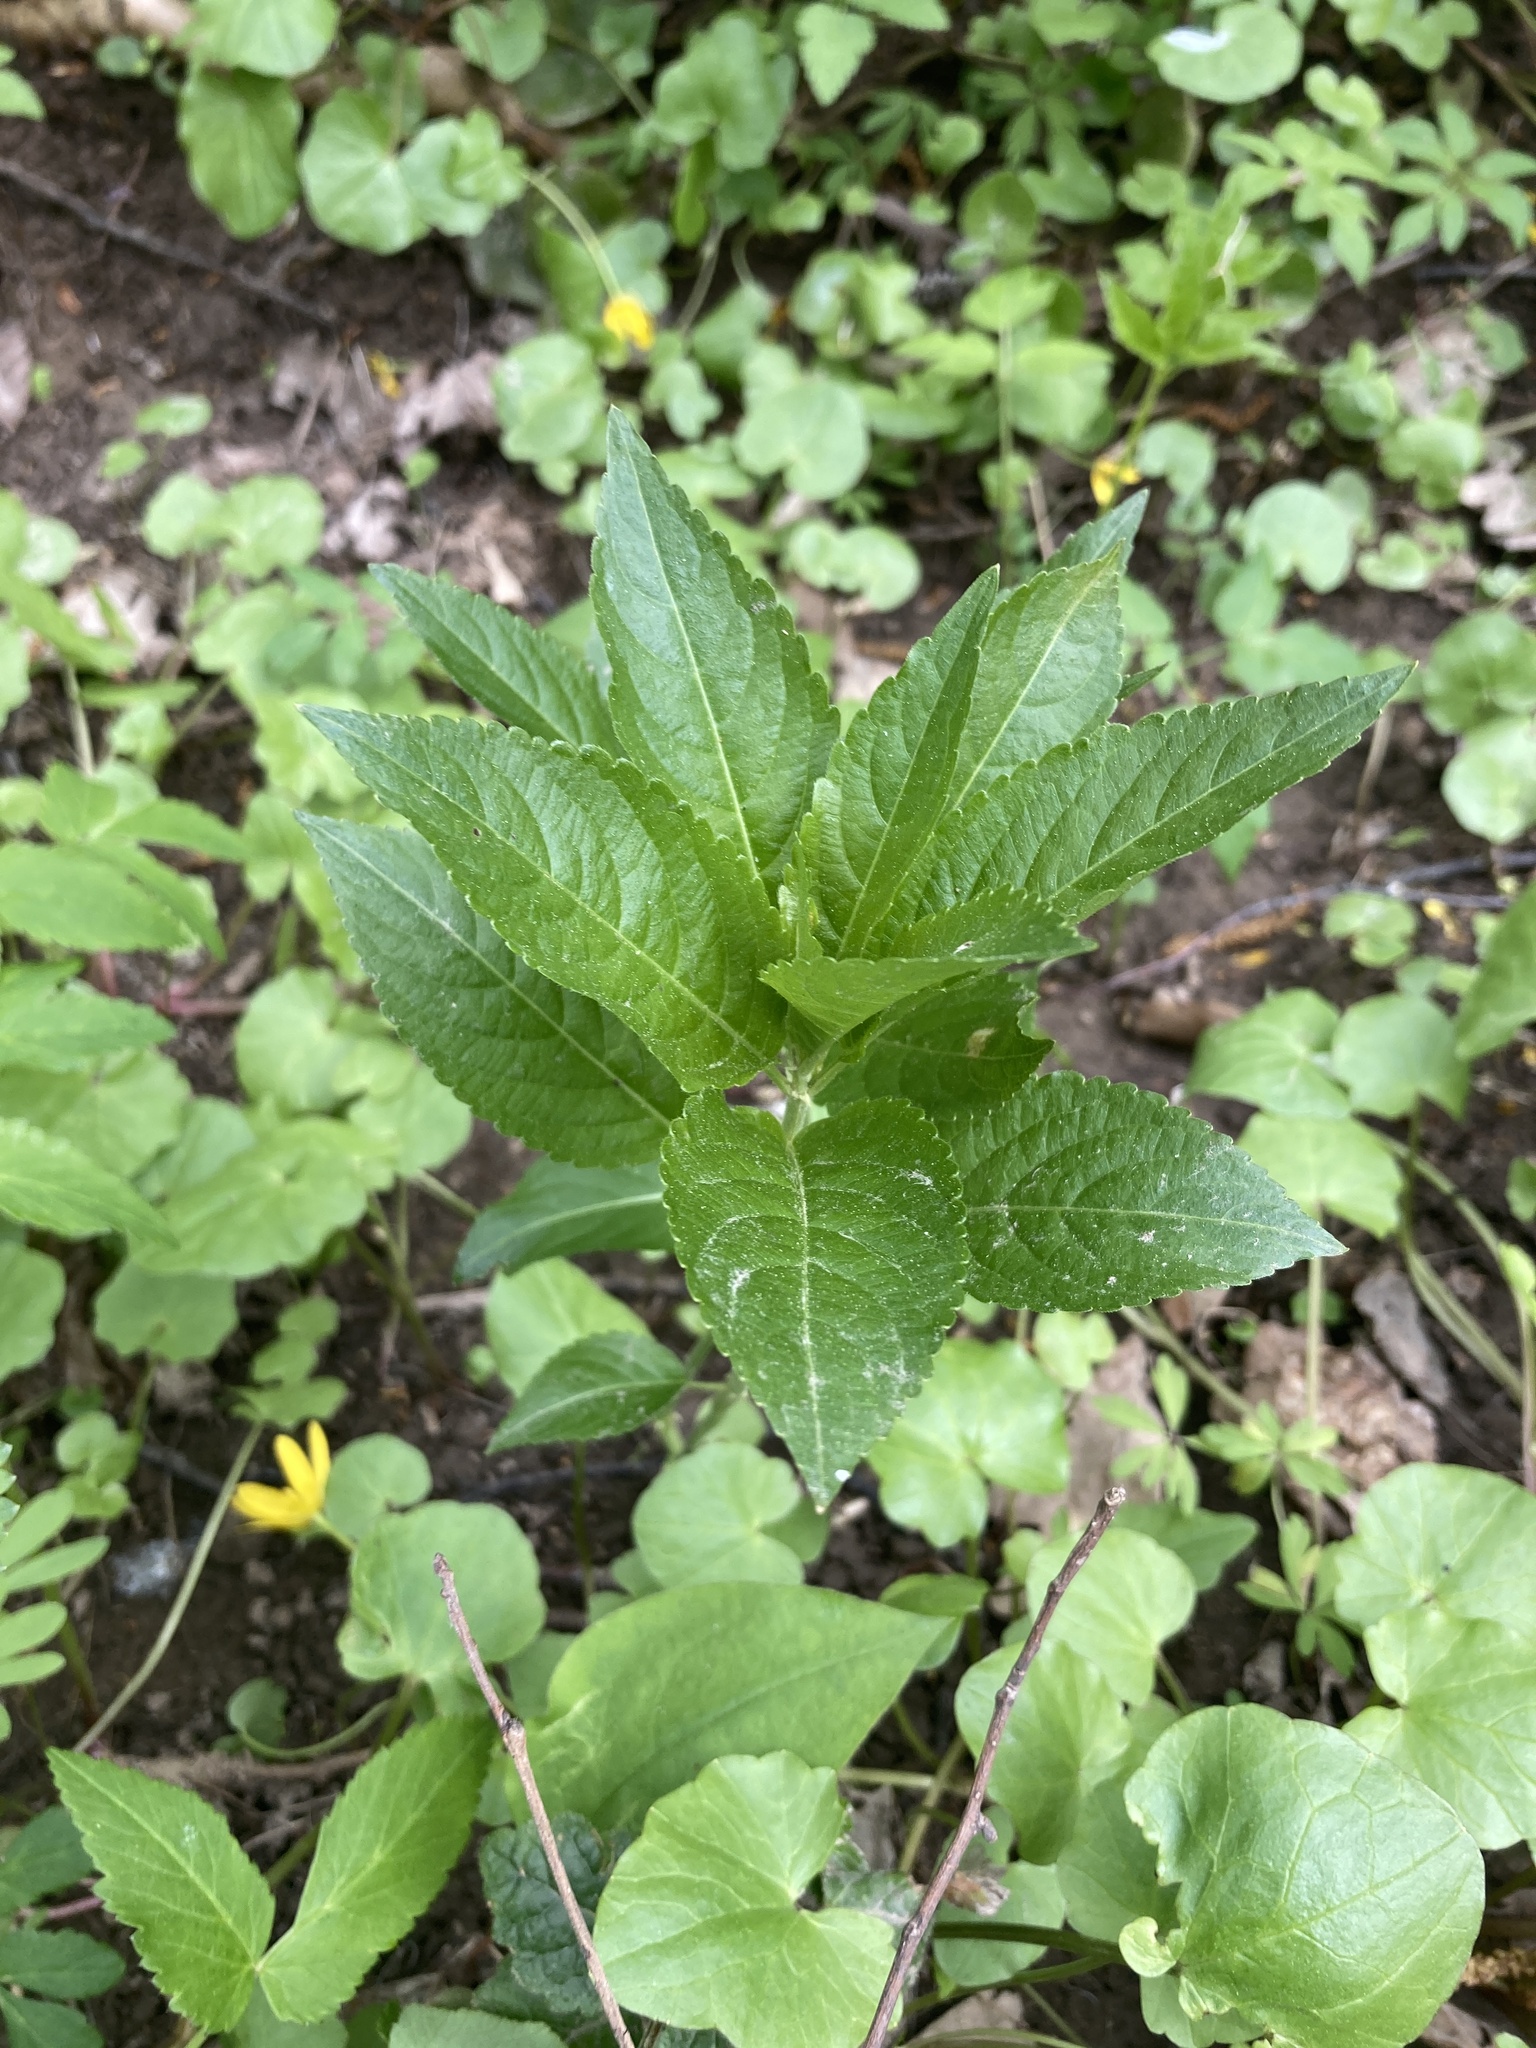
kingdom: Plantae
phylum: Tracheophyta
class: Magnoliopsida
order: Malpighiales
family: Euphorbiaceae
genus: Mercurialis
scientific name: Mercurialis perennis
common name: Dog mercury
